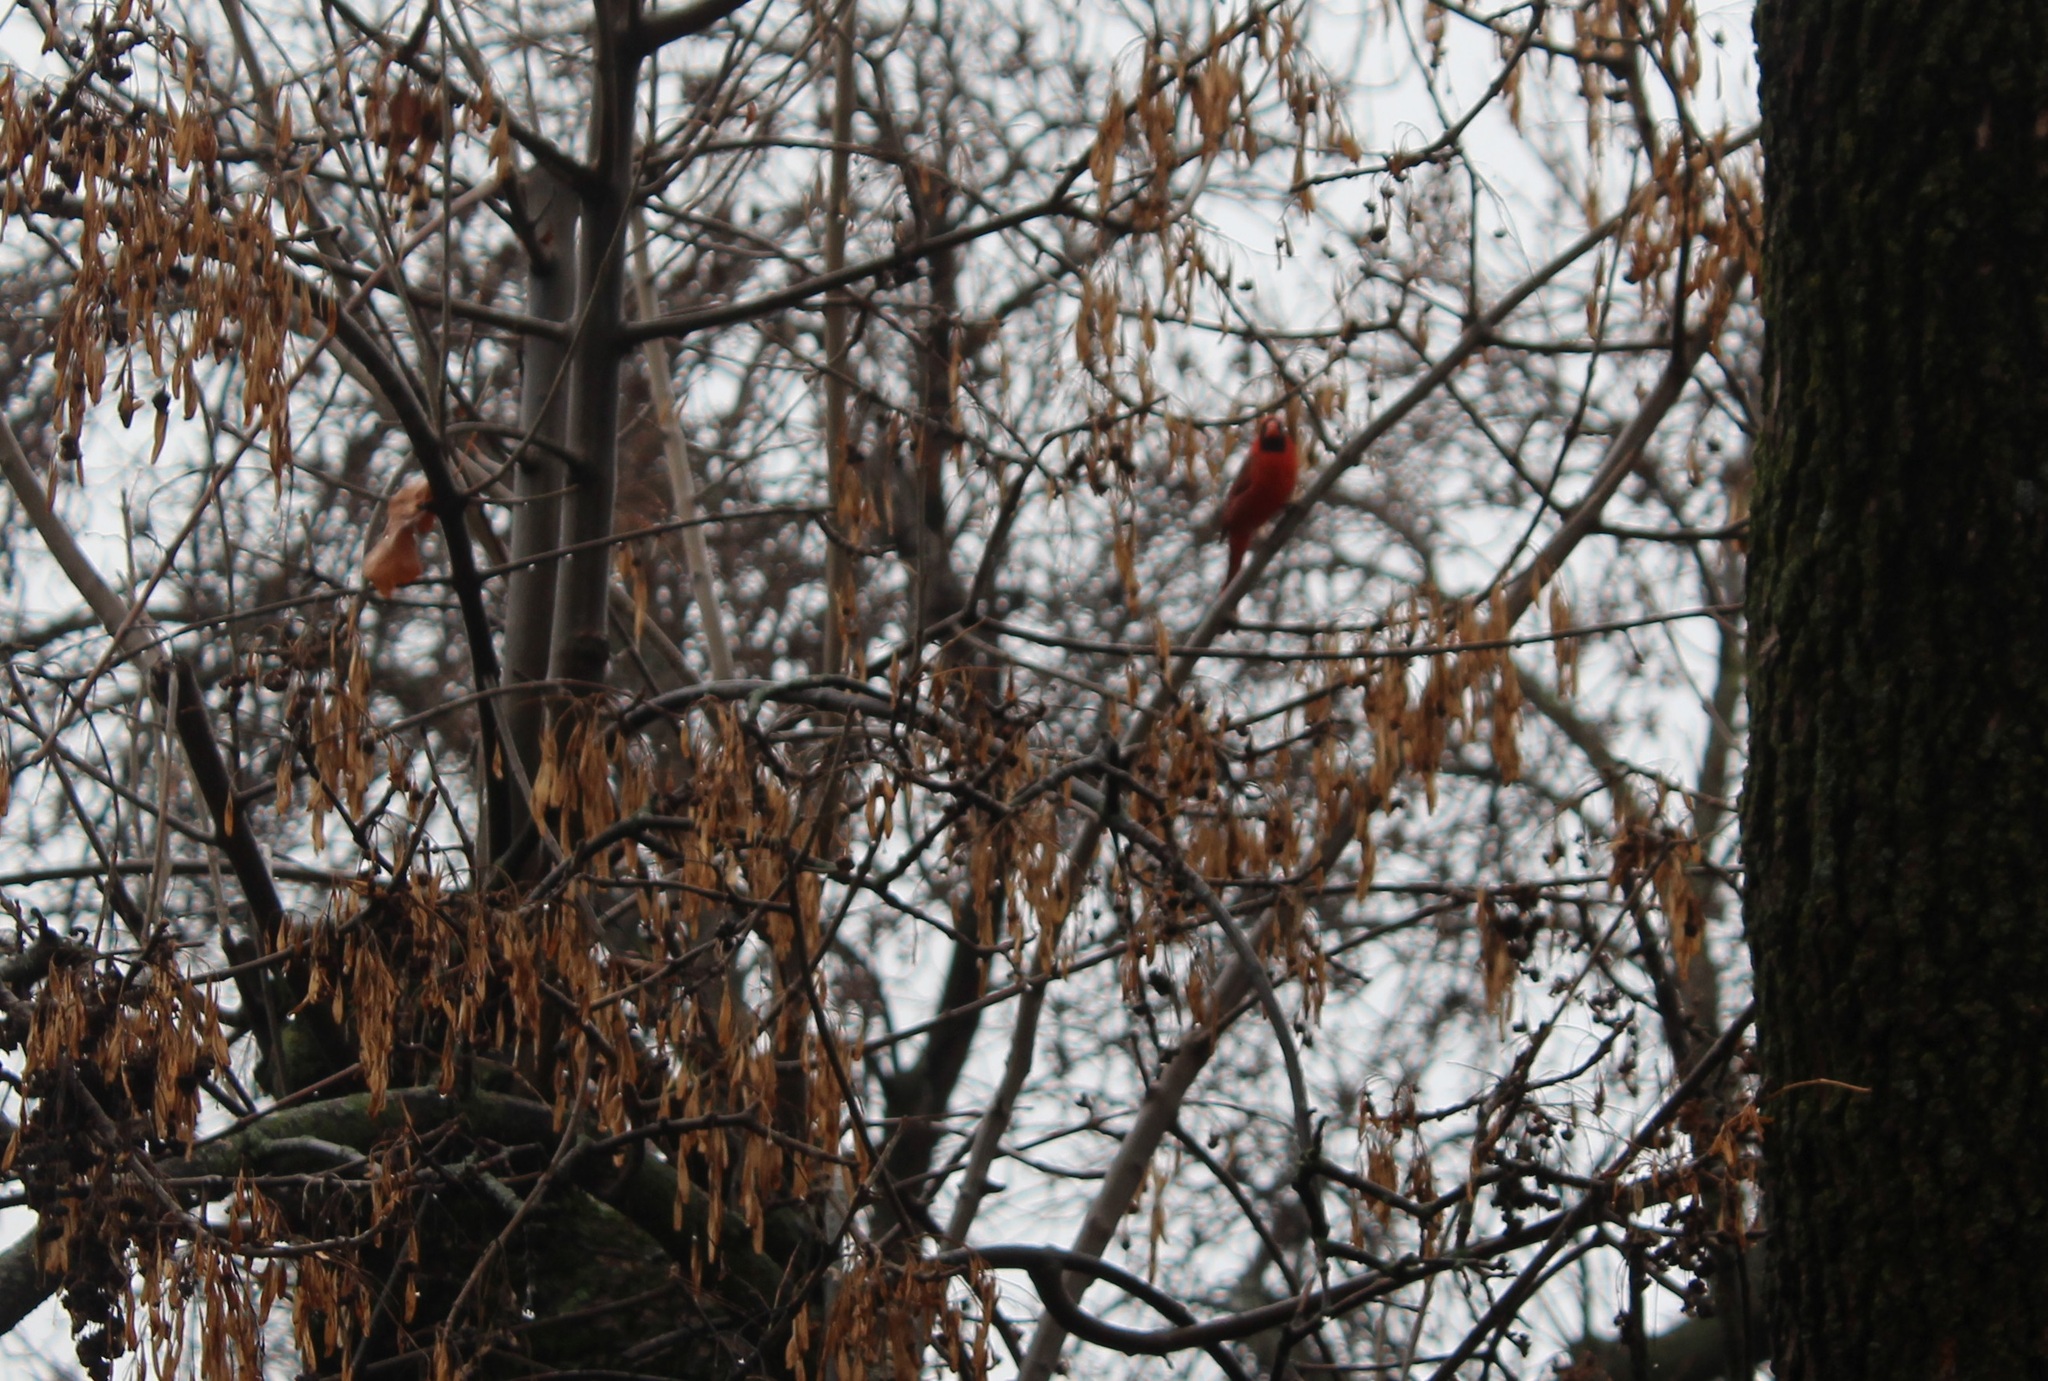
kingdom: Animalia
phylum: Chordata
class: Aves
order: Passeriformes
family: Cardinalidae
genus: Cardinalis
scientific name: Cardinalis cardinalis
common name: Northern cardinal
